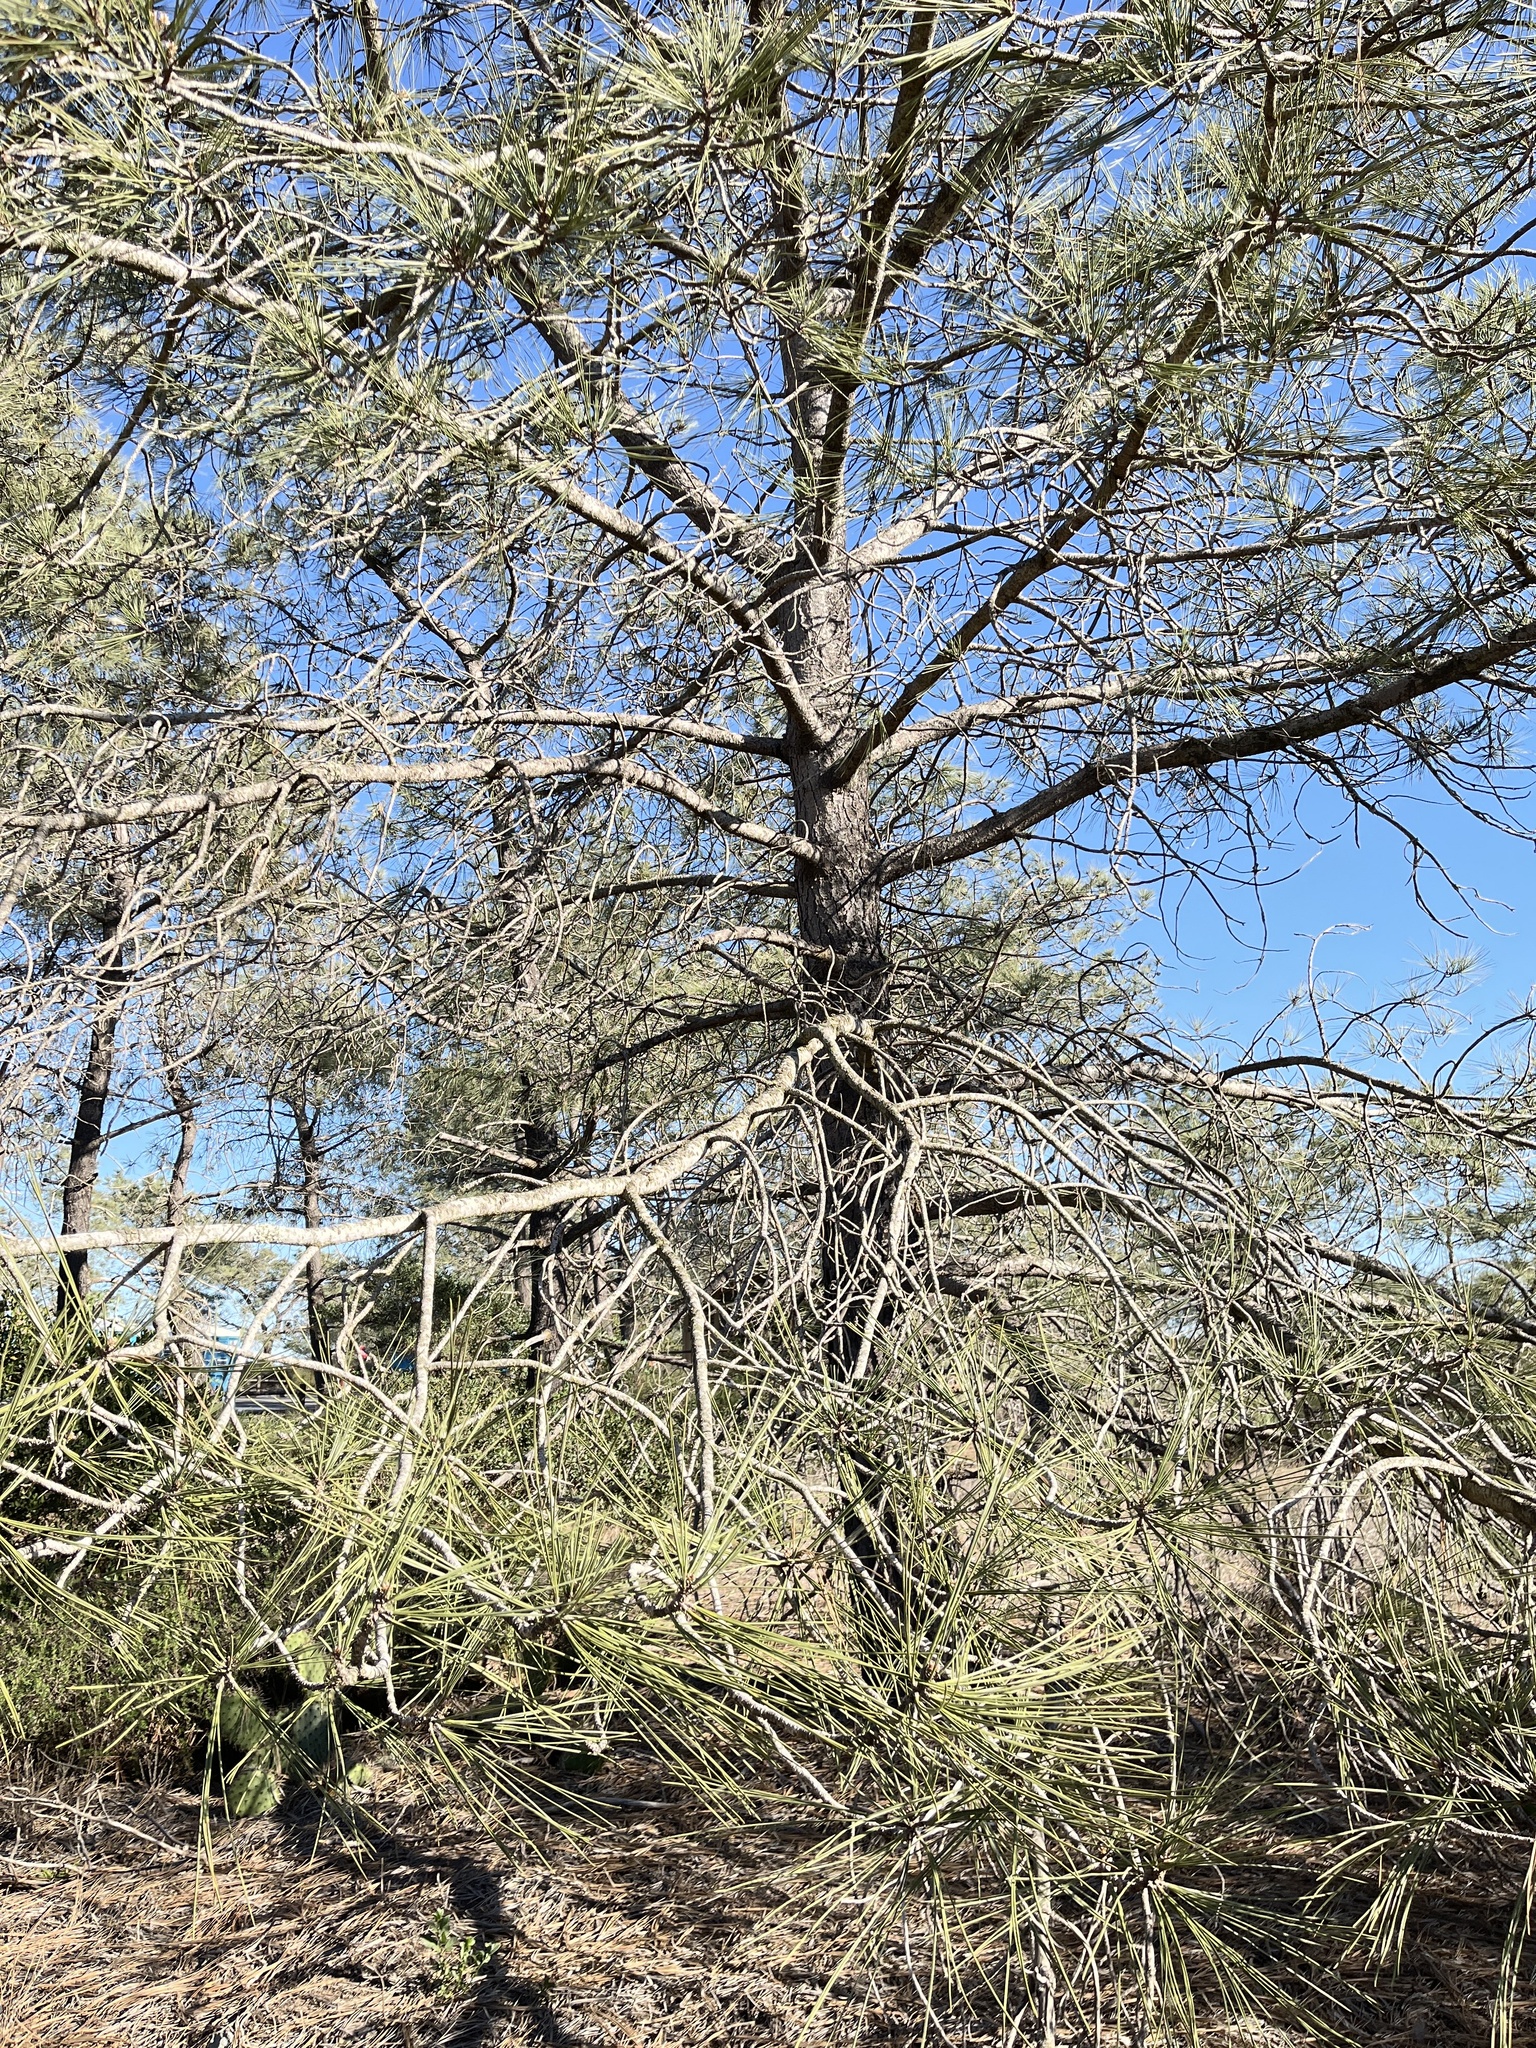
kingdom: Plantae
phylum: Tracheophyta
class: Pinopsida
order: Pinales
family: Pinaceae
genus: Pinus
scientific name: Pinus torreyana
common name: Torrey pine
